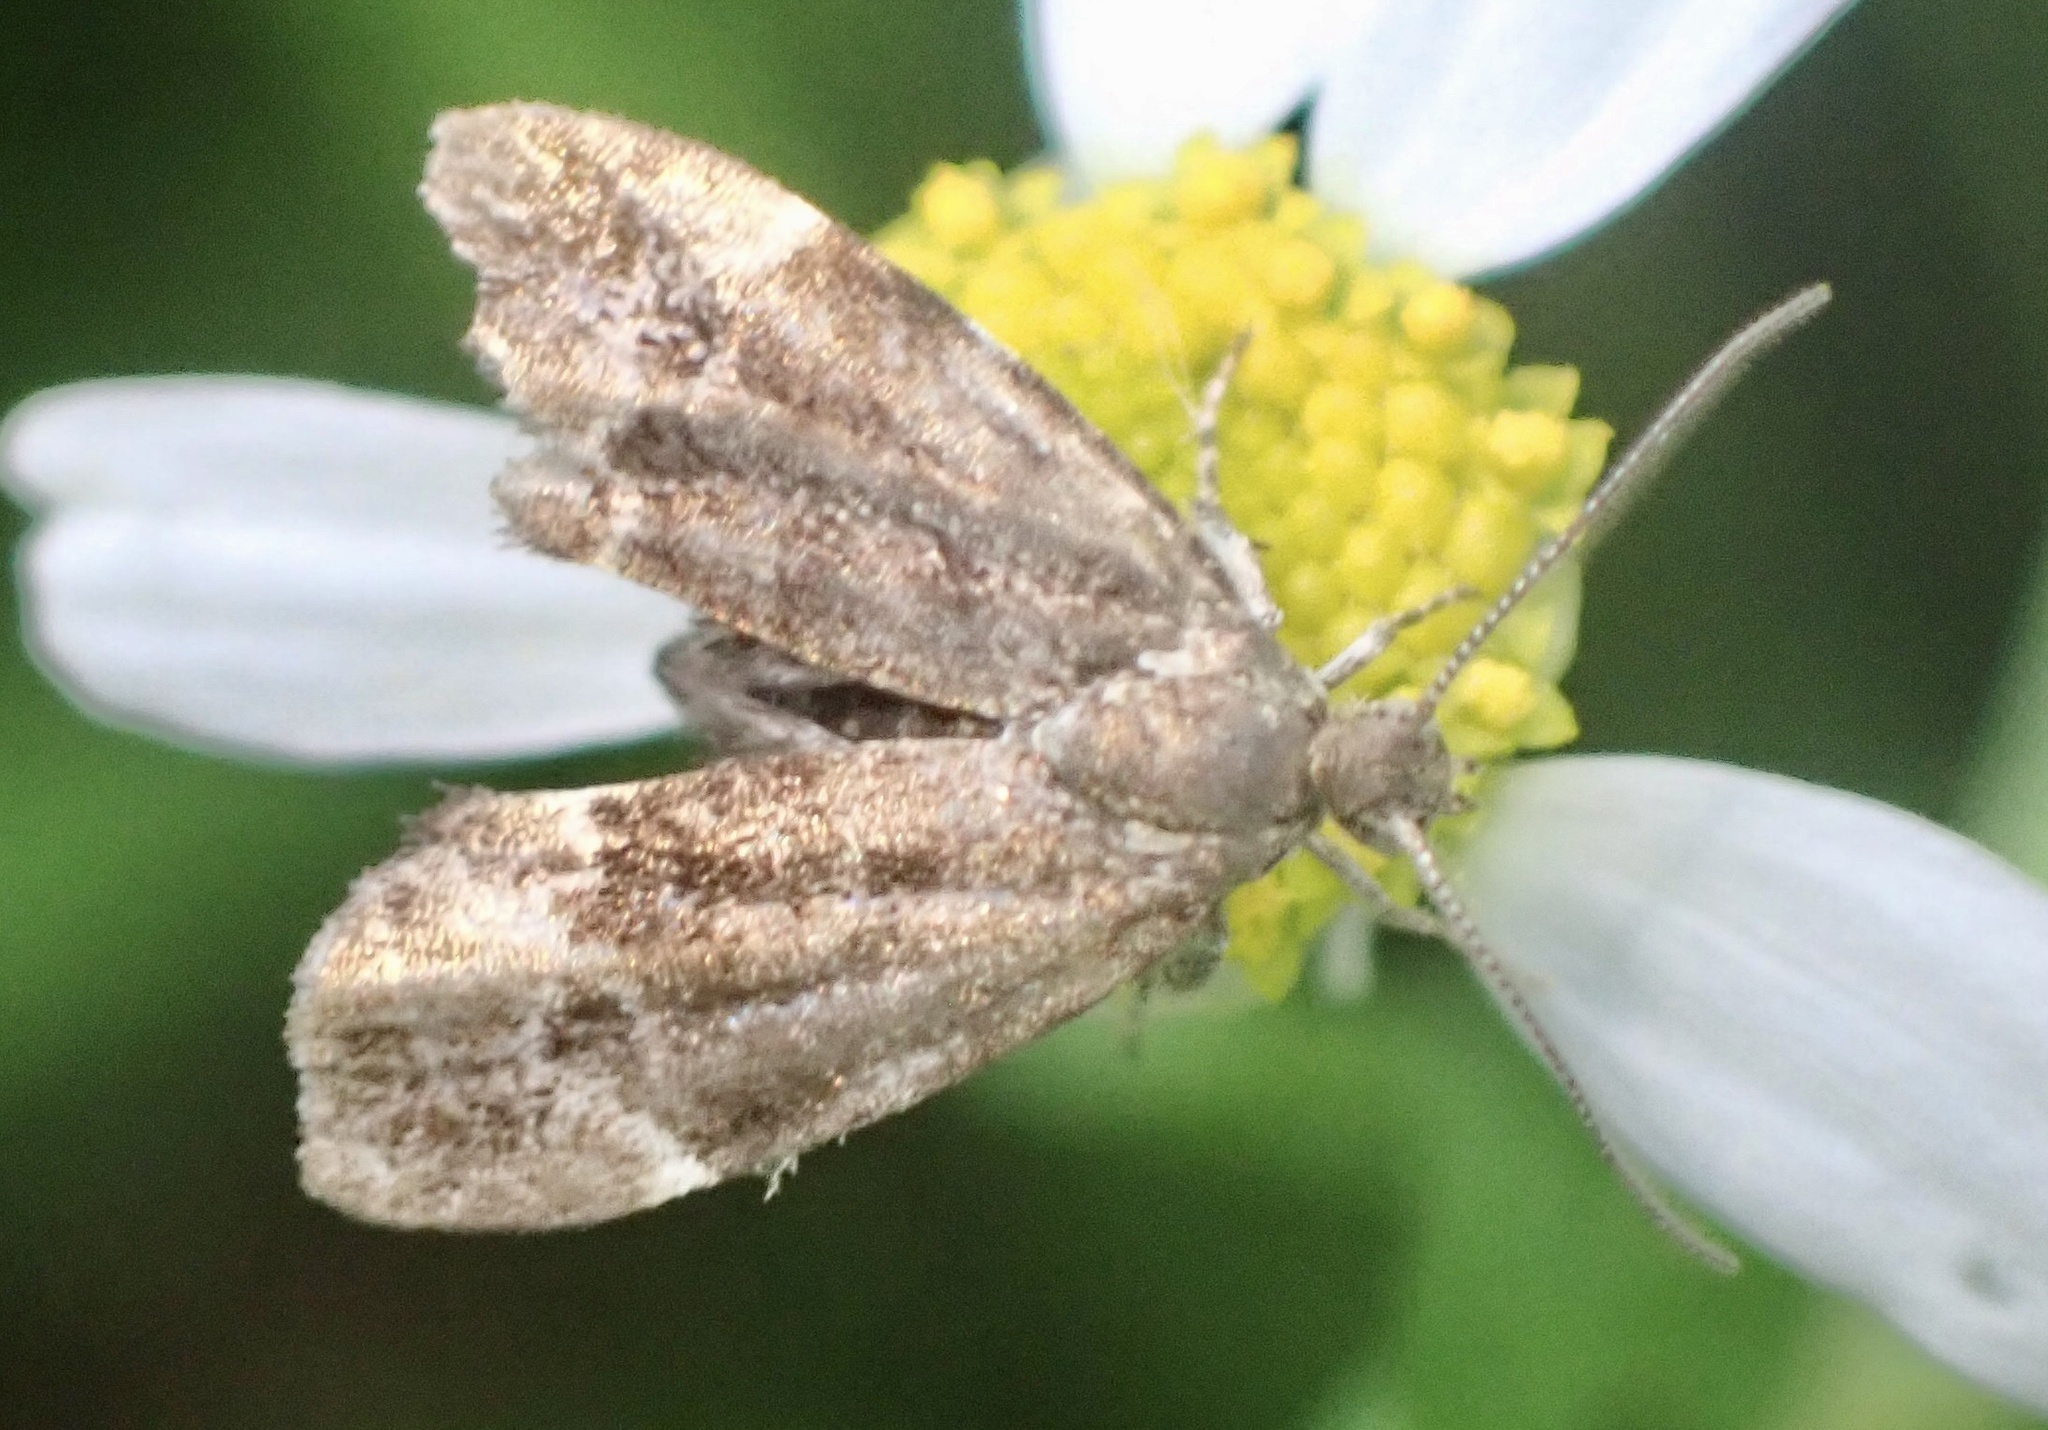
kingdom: Animalia
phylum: Arthropoda
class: Insecta
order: Lepidoptera
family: Choreutidae
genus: Anthophila
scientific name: Anthophila fabriciana
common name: Nettle-tap
